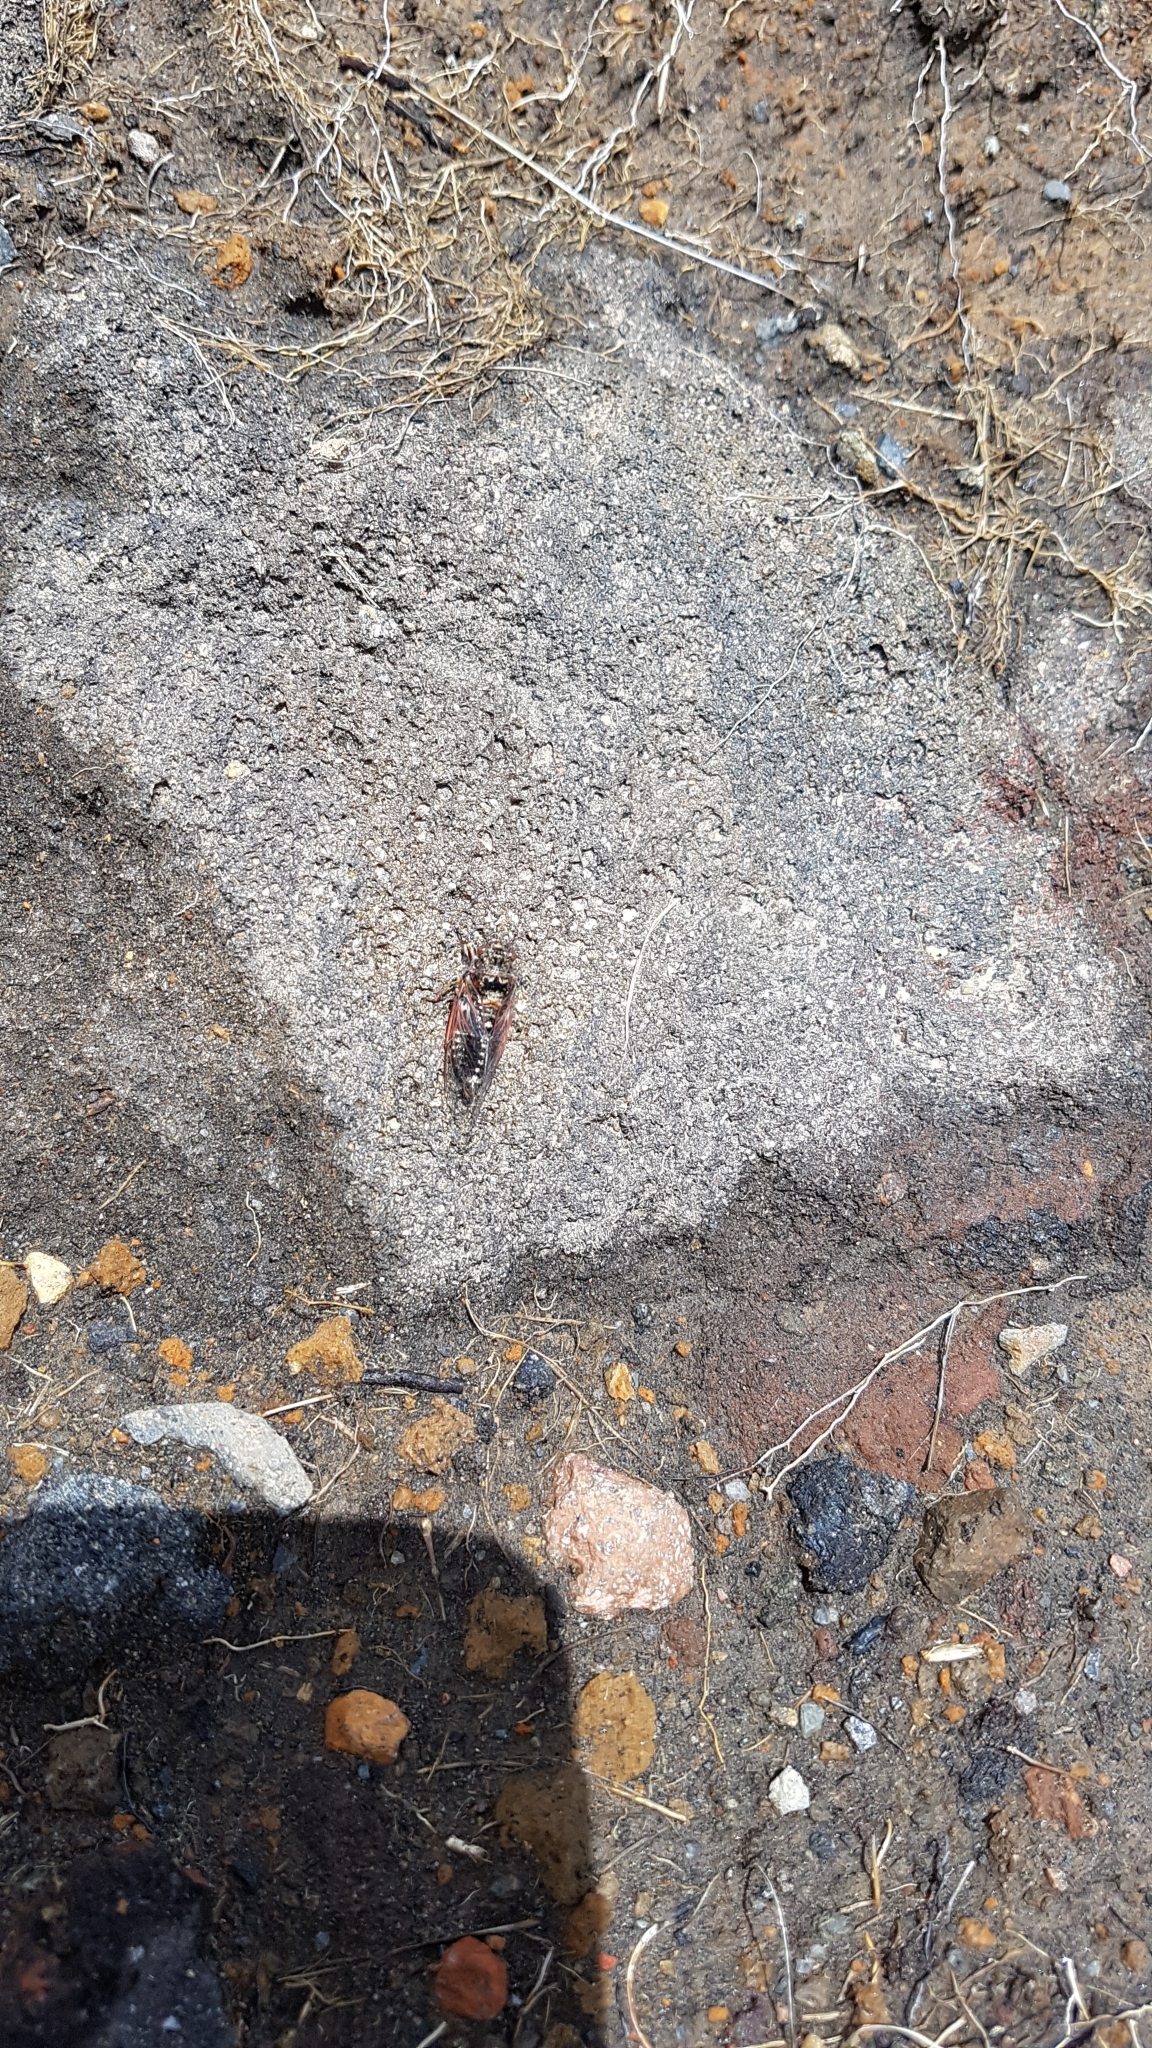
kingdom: Animalia
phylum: Arthropoda
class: Insecta
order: Hemiptera
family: Cicadidae
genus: Maoricicada
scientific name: Maoricicada campbelli
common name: Campbell's cicada
